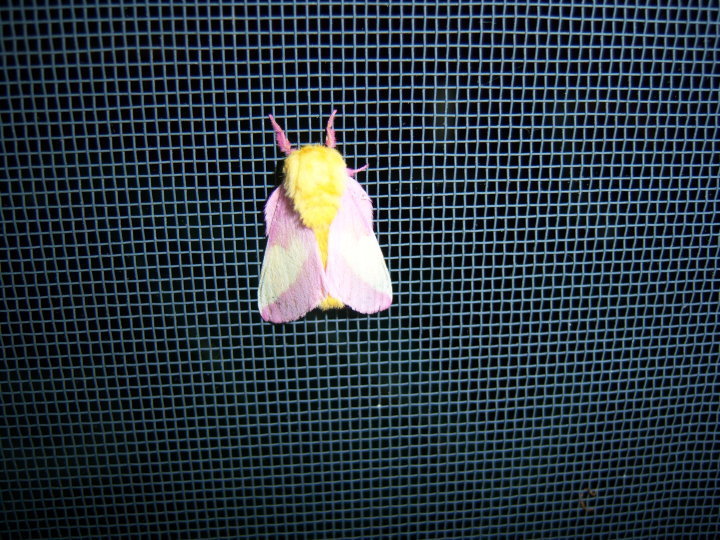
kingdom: Animalia
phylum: Arthropoda
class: Insecta
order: Lepidoptera
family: Saturniidae
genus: Dryocampa
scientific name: Dryocampa rubicunda
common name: Rosy maple moth
